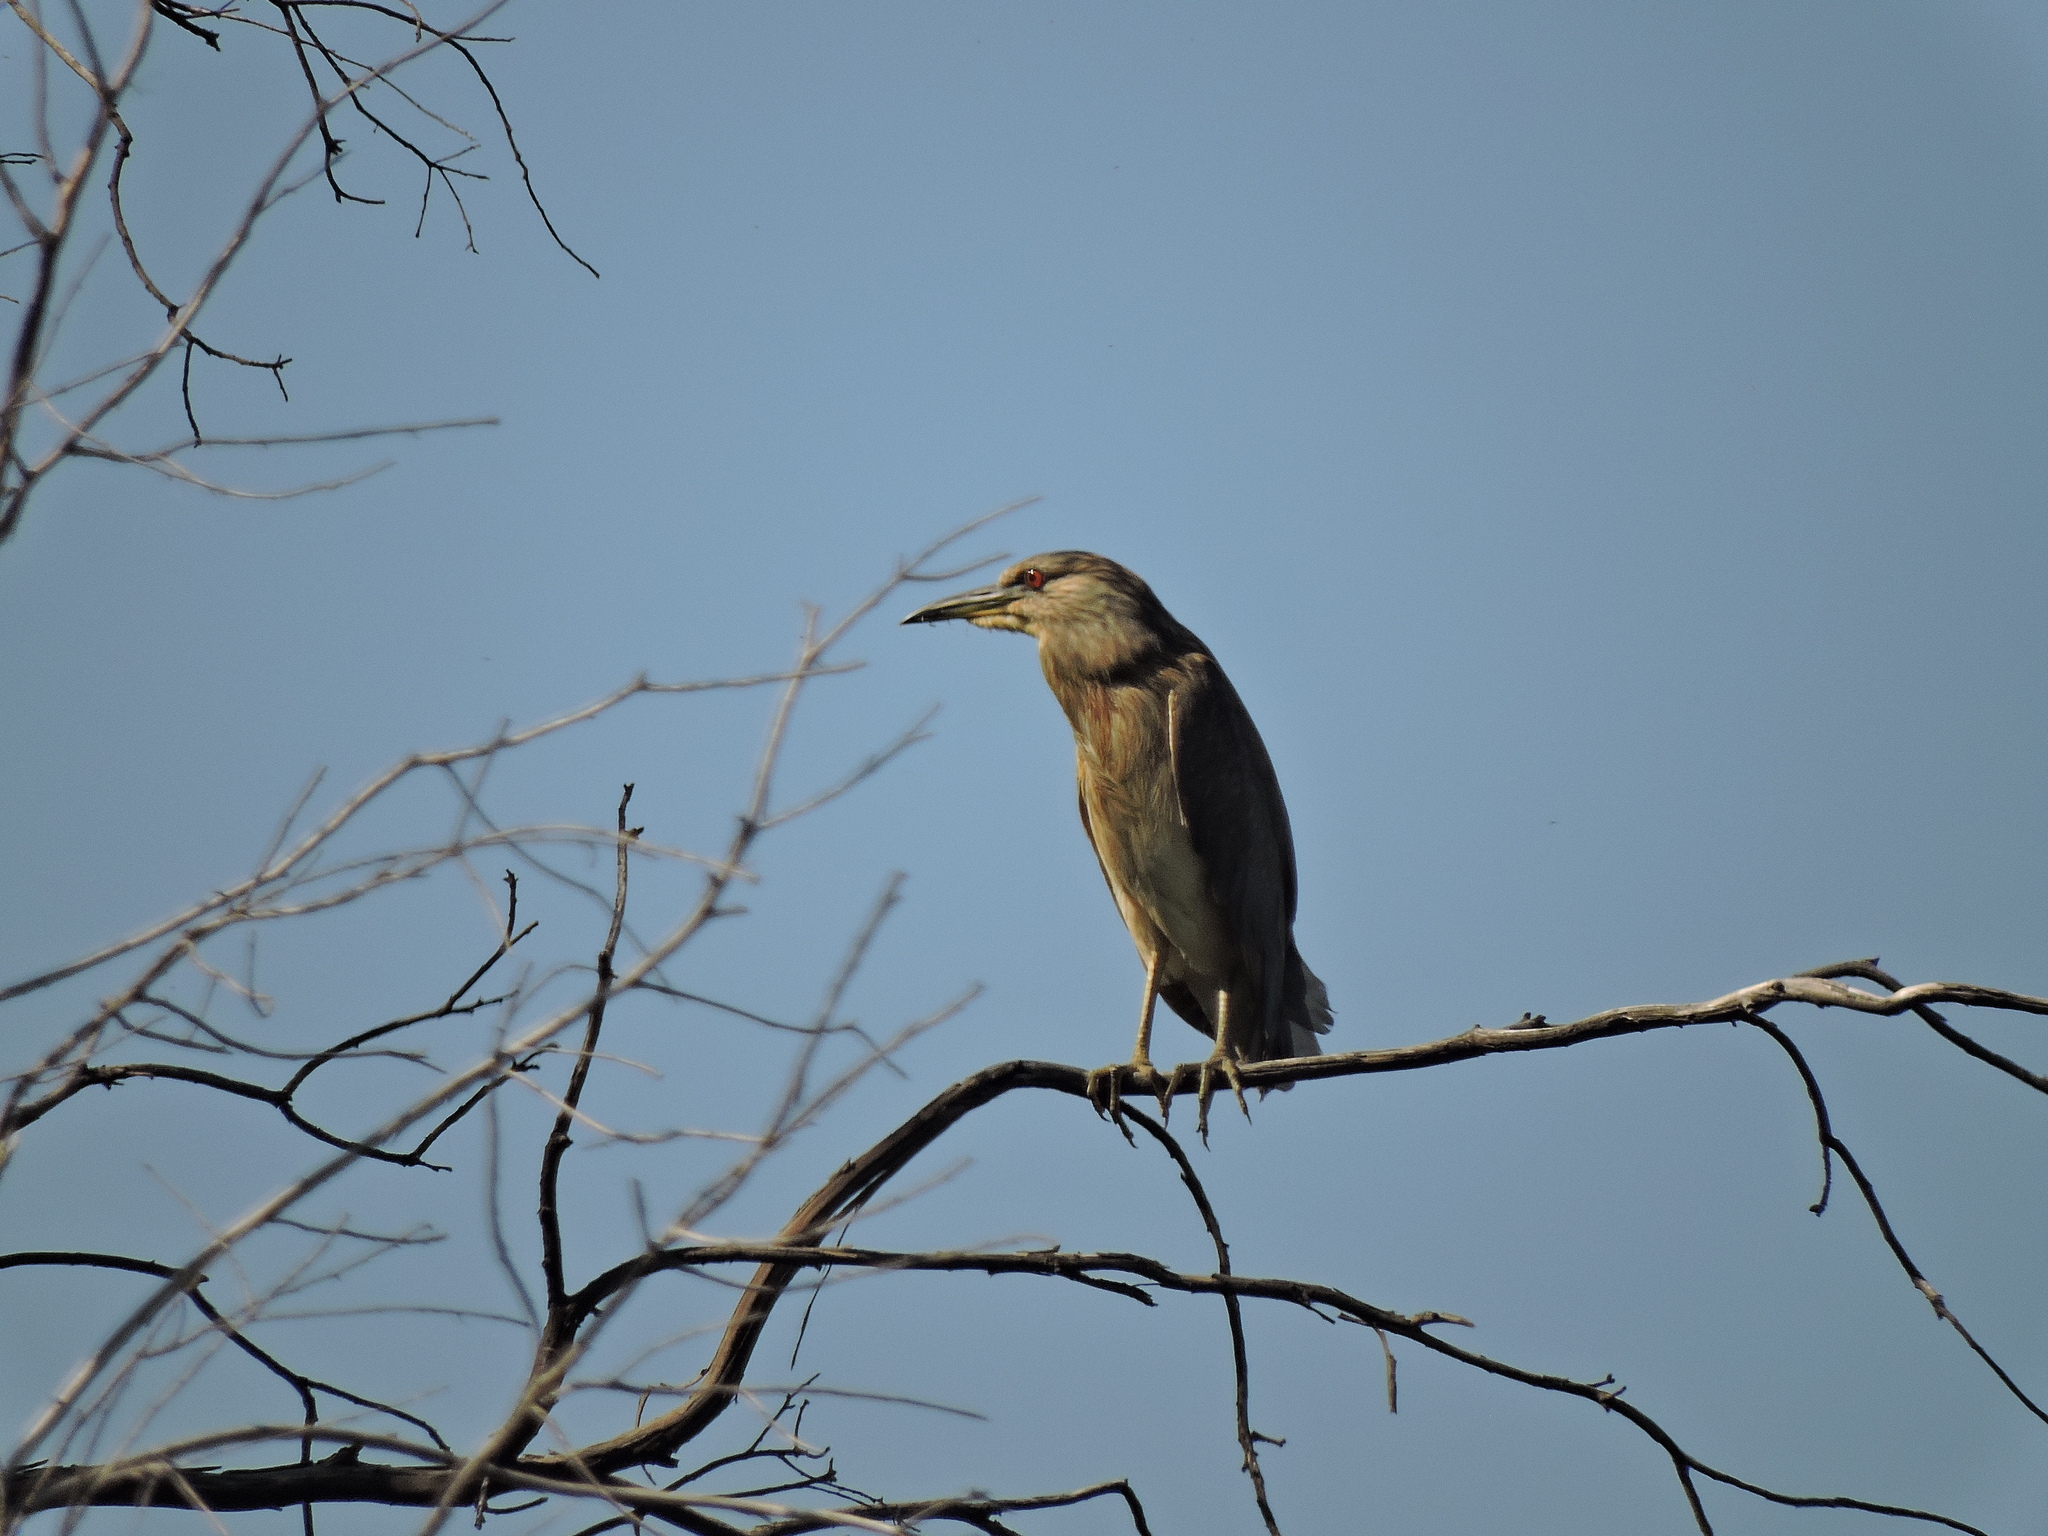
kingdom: Animalia
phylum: Chordata
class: Aves
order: Pelecaniformes
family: Ardeidae
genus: Nycticorax
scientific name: Nycticorax nycticorax
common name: Black-crowned night heron
